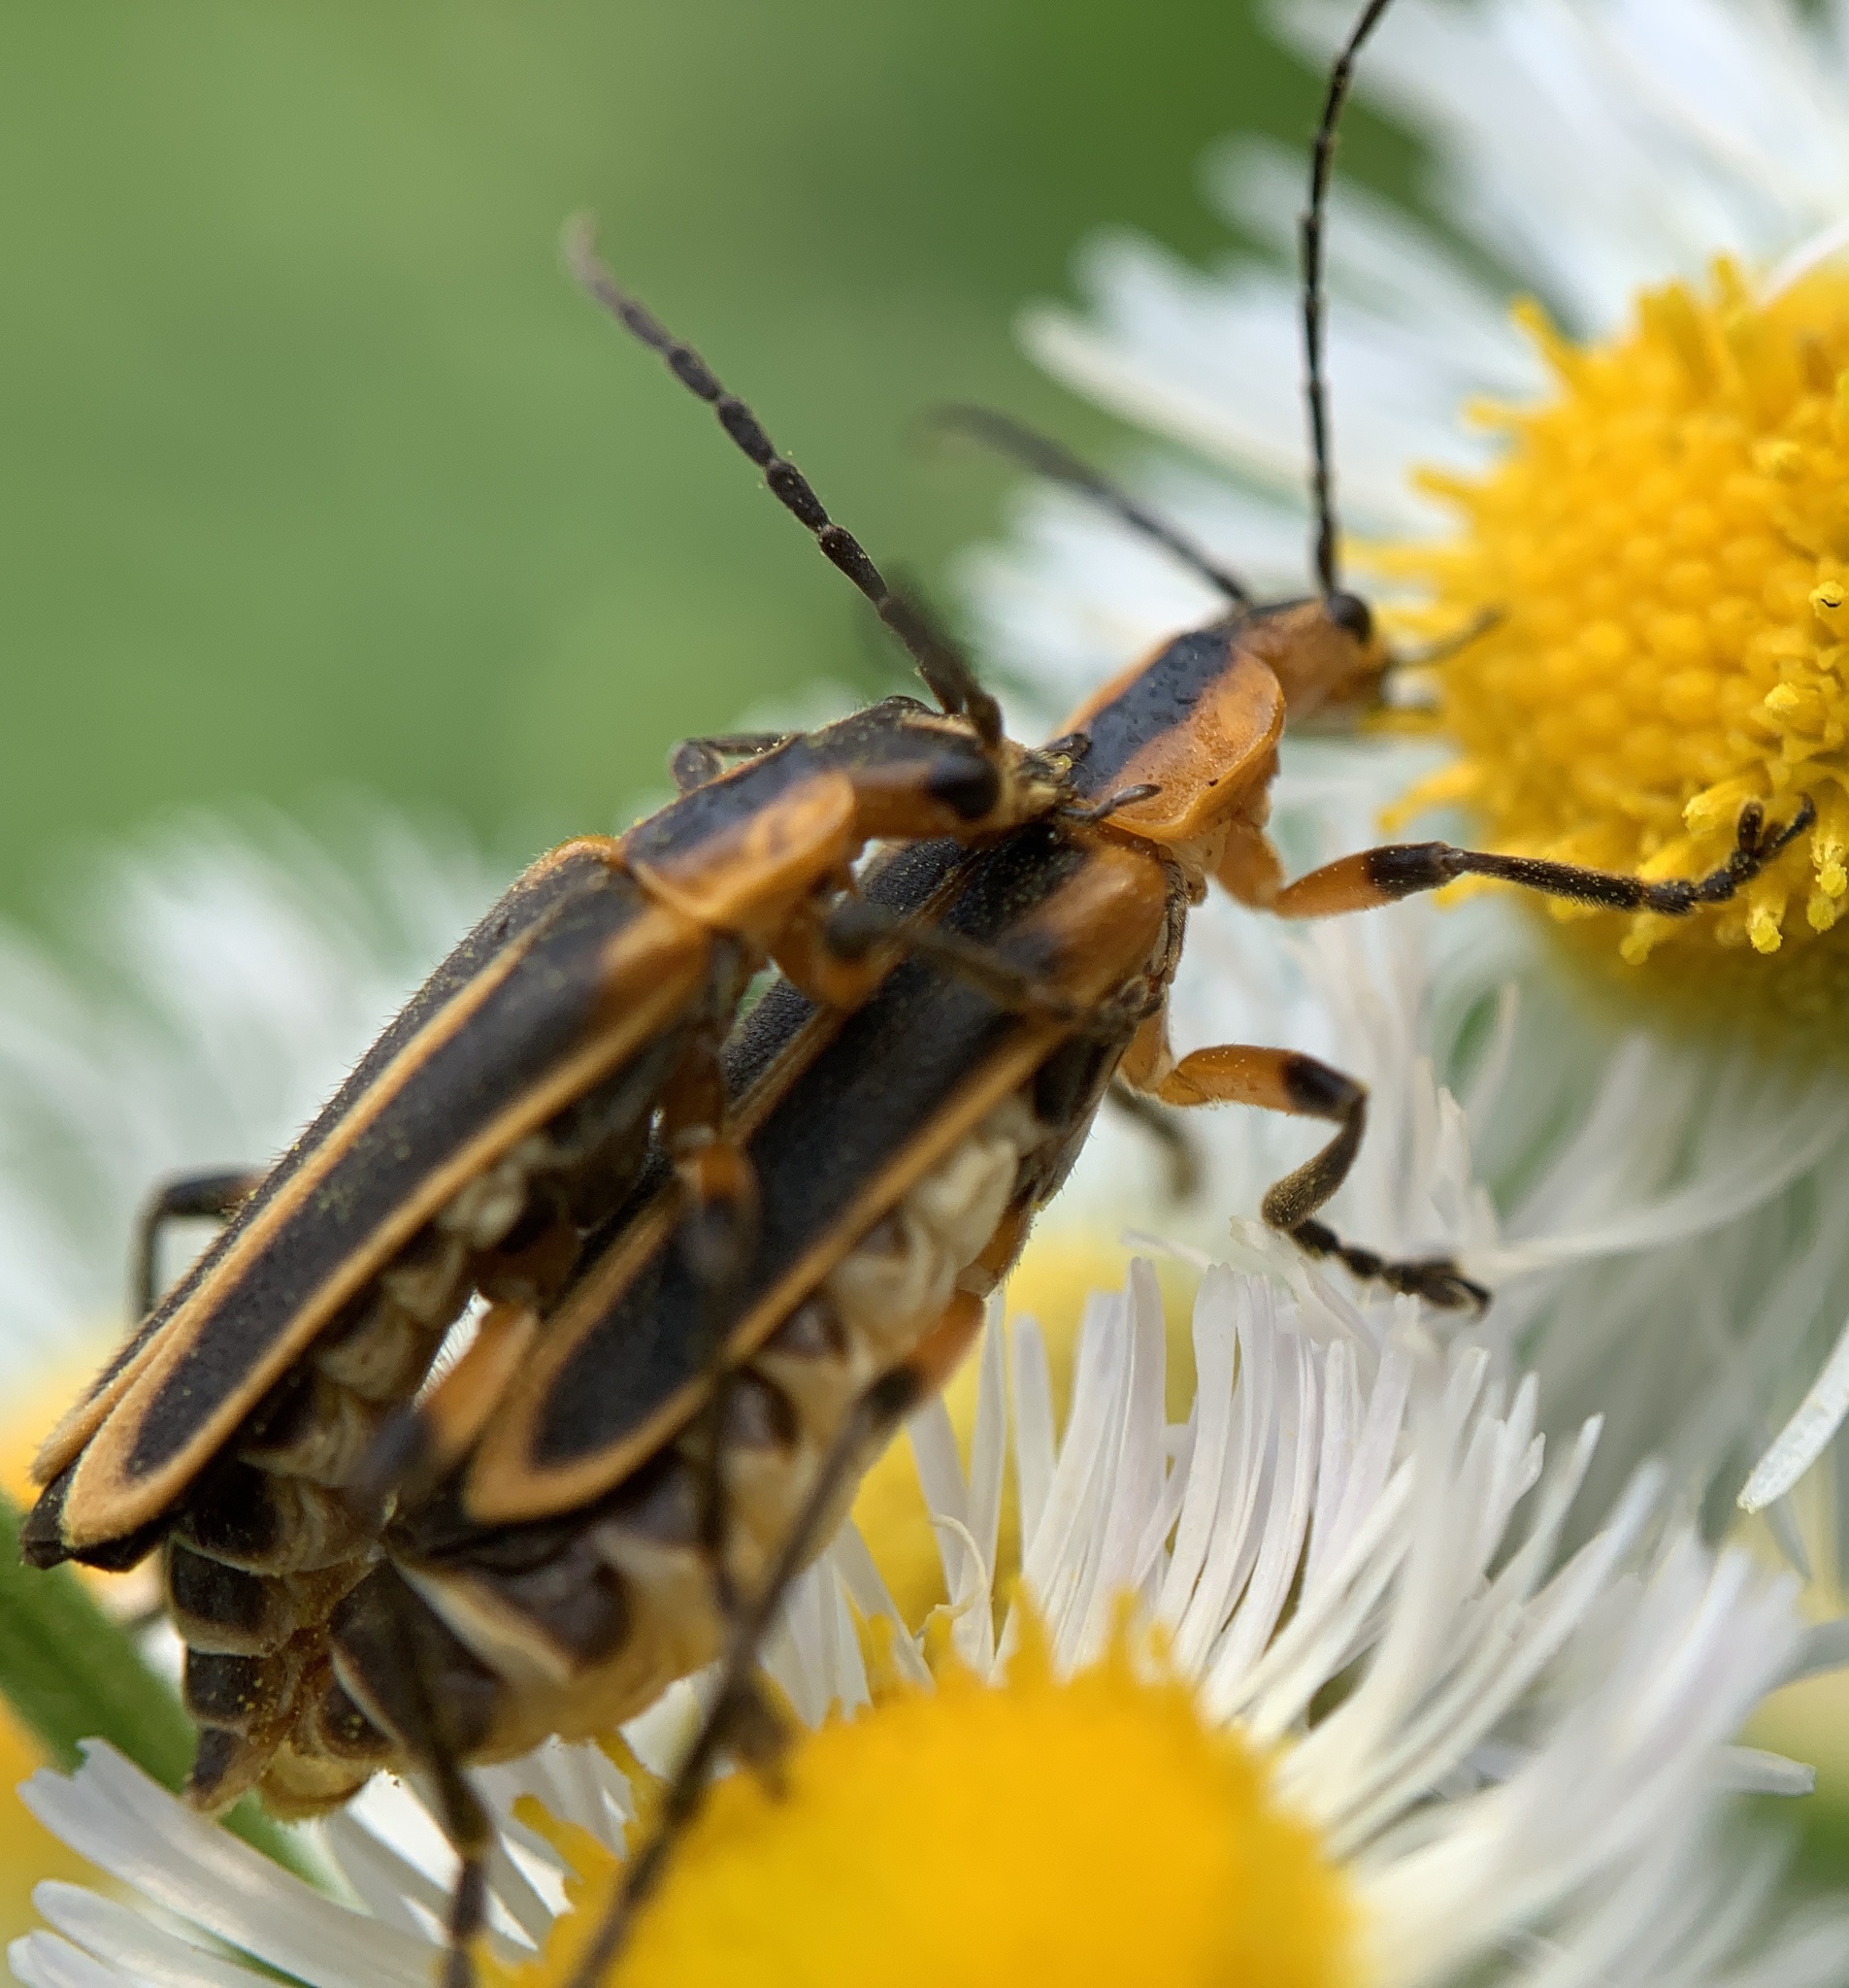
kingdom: Animalia
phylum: Arthropoda
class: Insecta
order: Coleoptera
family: Cantharidae
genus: Chauliognathus
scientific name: Chauliognathus marginatus
